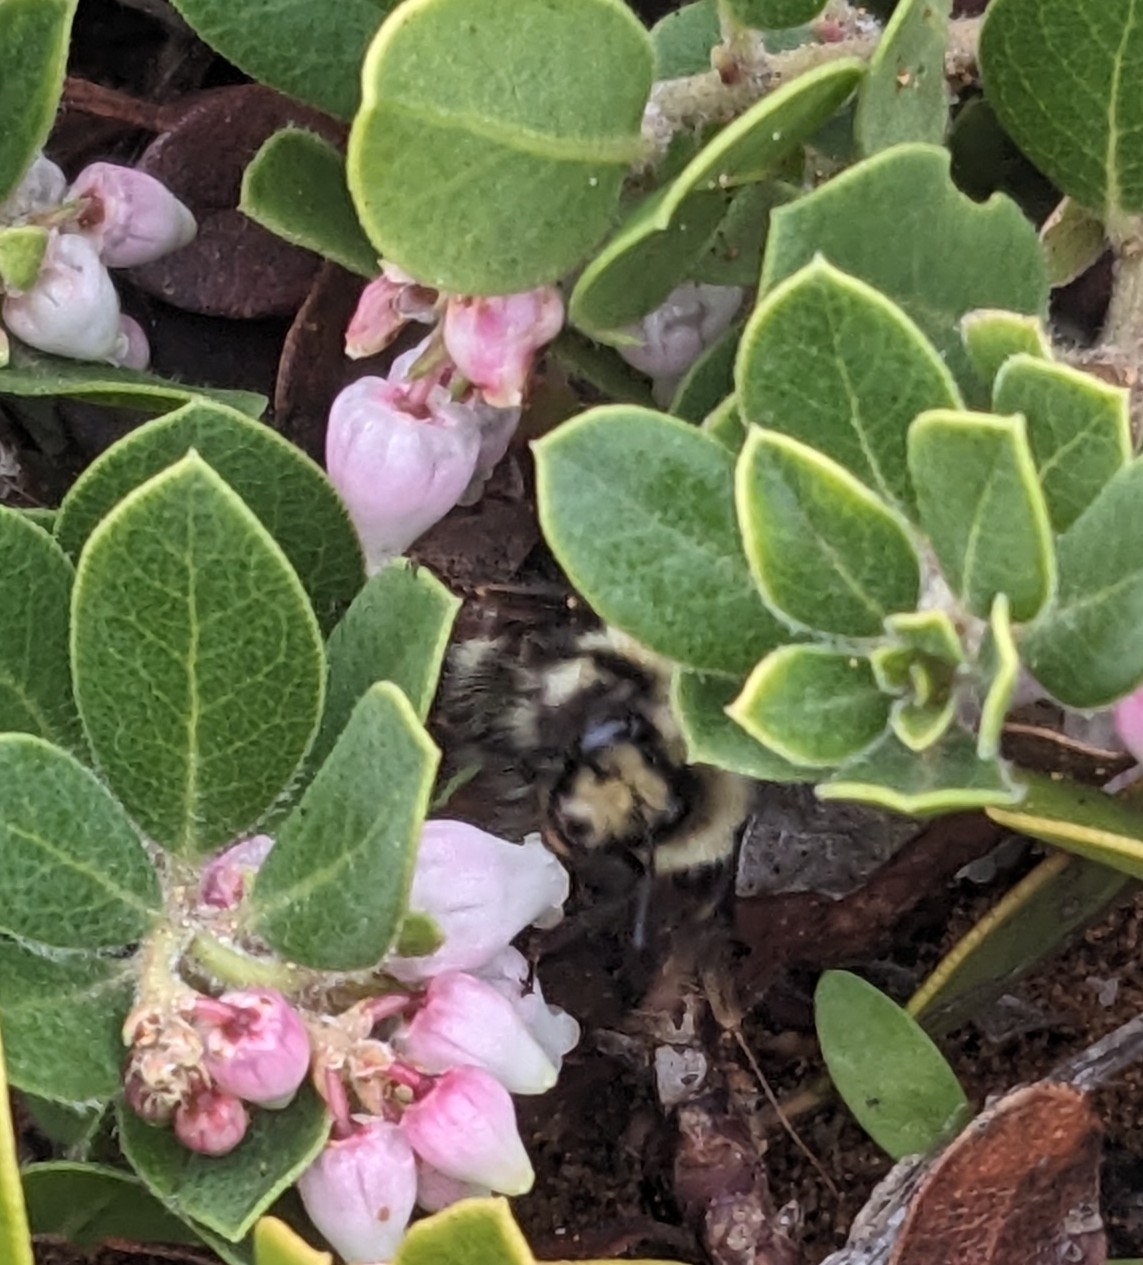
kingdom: Animalia
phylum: Arthropoda
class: Insecta
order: Hymenoptera
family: Apidae
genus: Bombus
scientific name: Bombus melanopygus
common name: Black tail bumble bee
